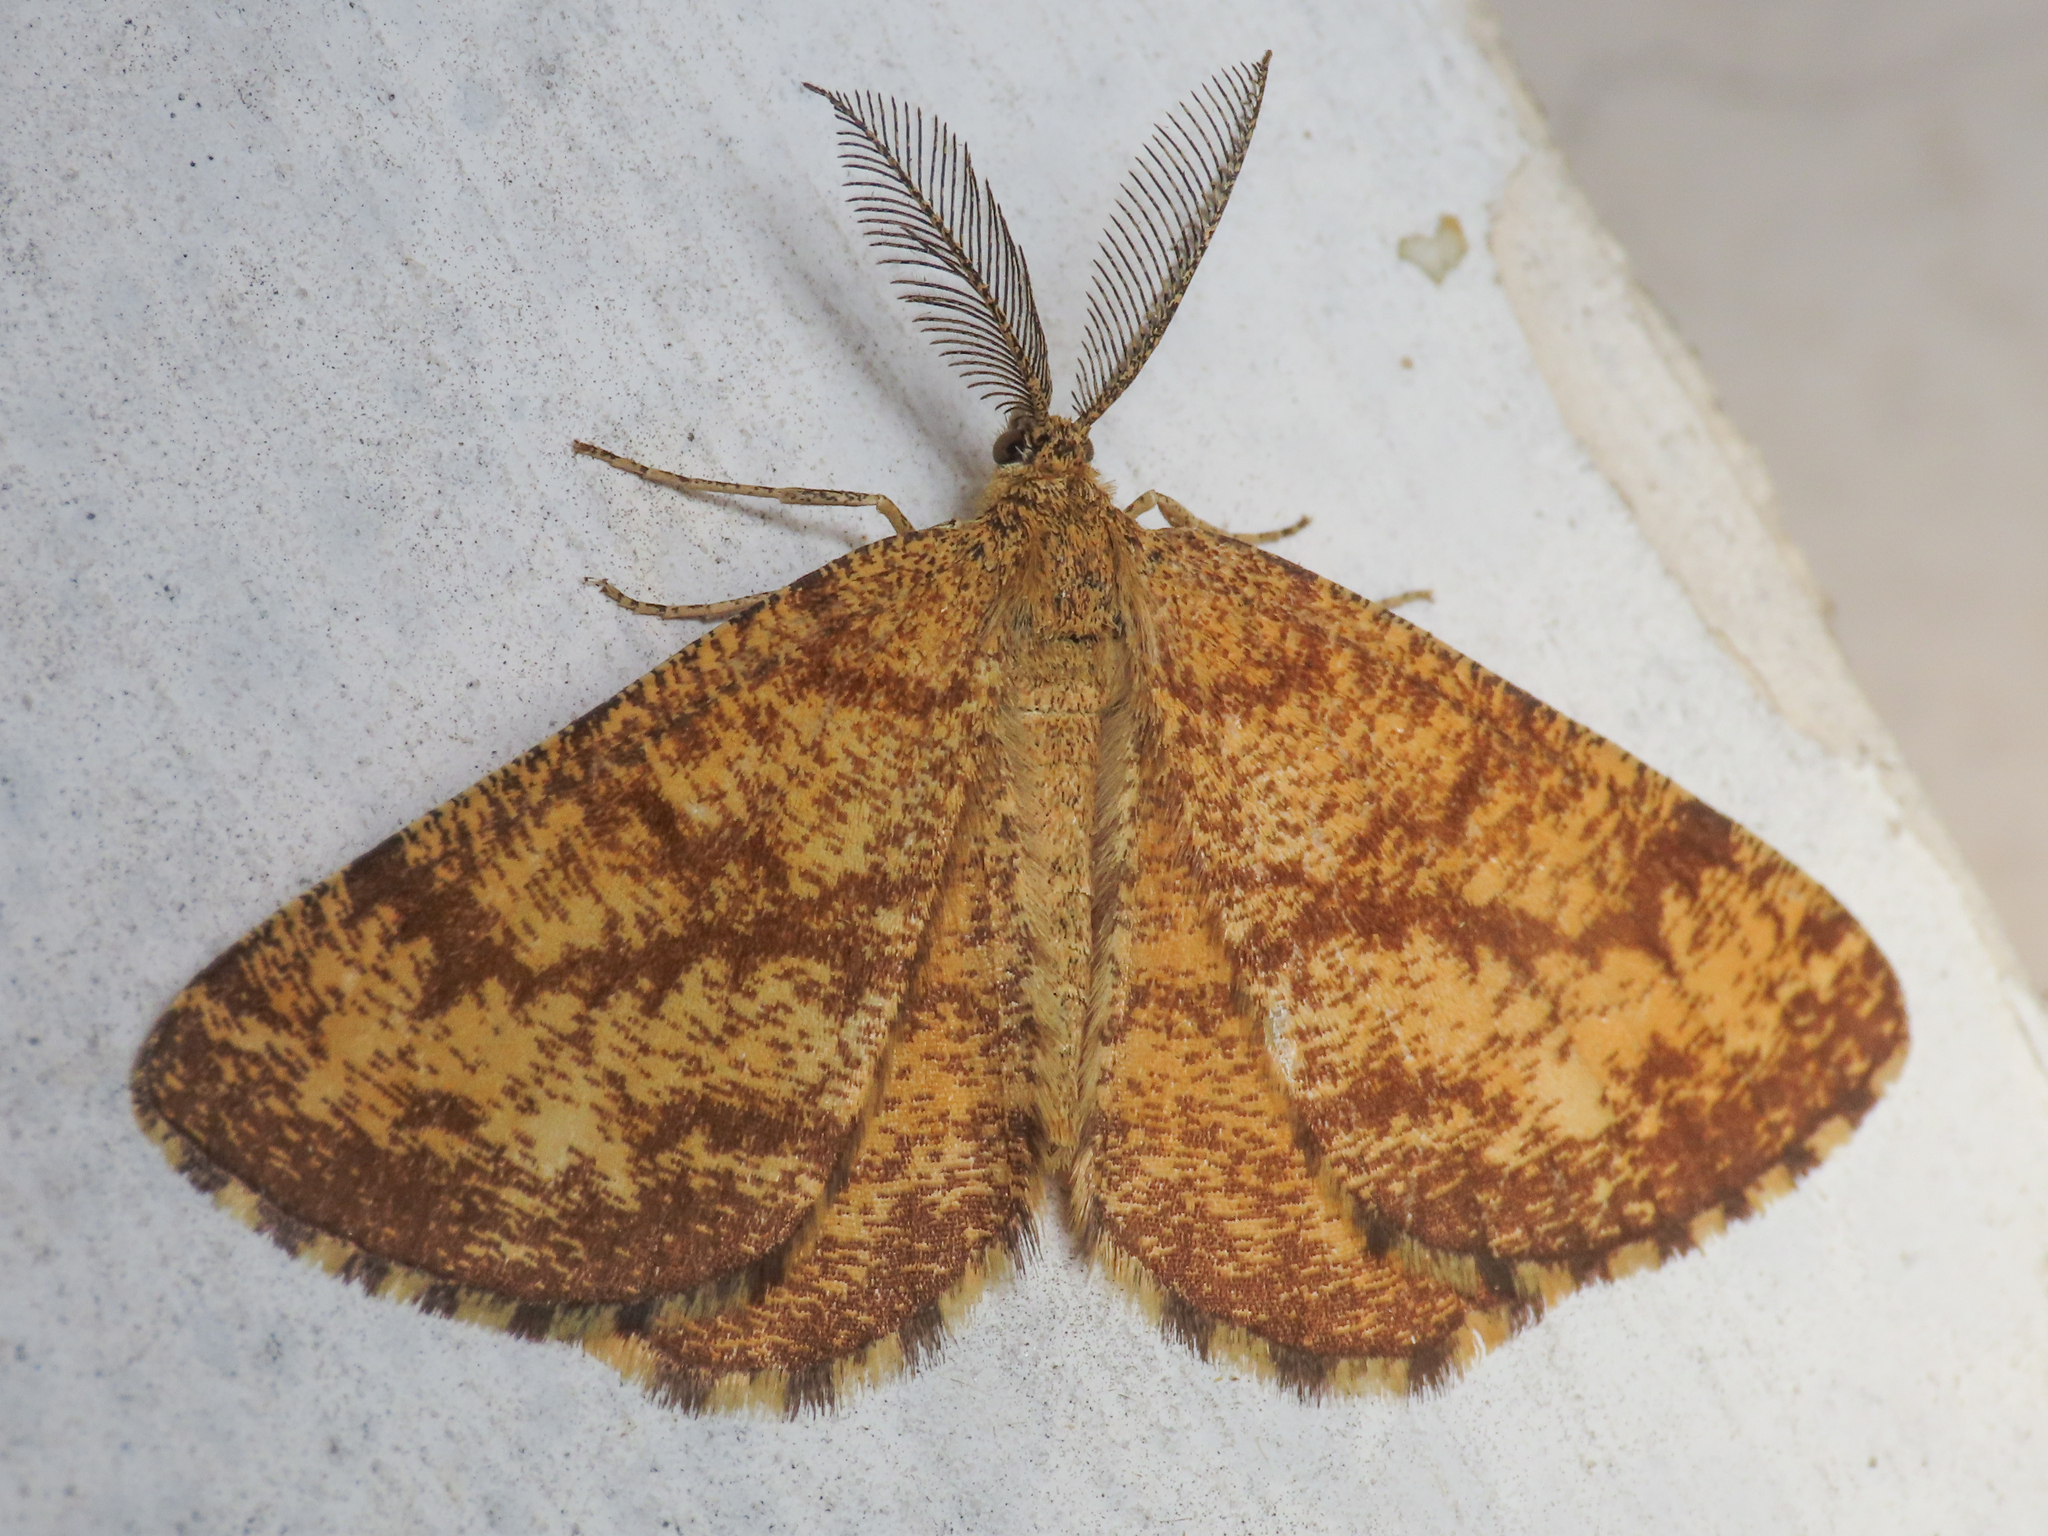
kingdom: Animalia
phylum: Arthropoda
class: Insecta
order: Lepidoptera
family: Geometridae
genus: Ematurga
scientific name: Ematurga atomaria
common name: Common heath
